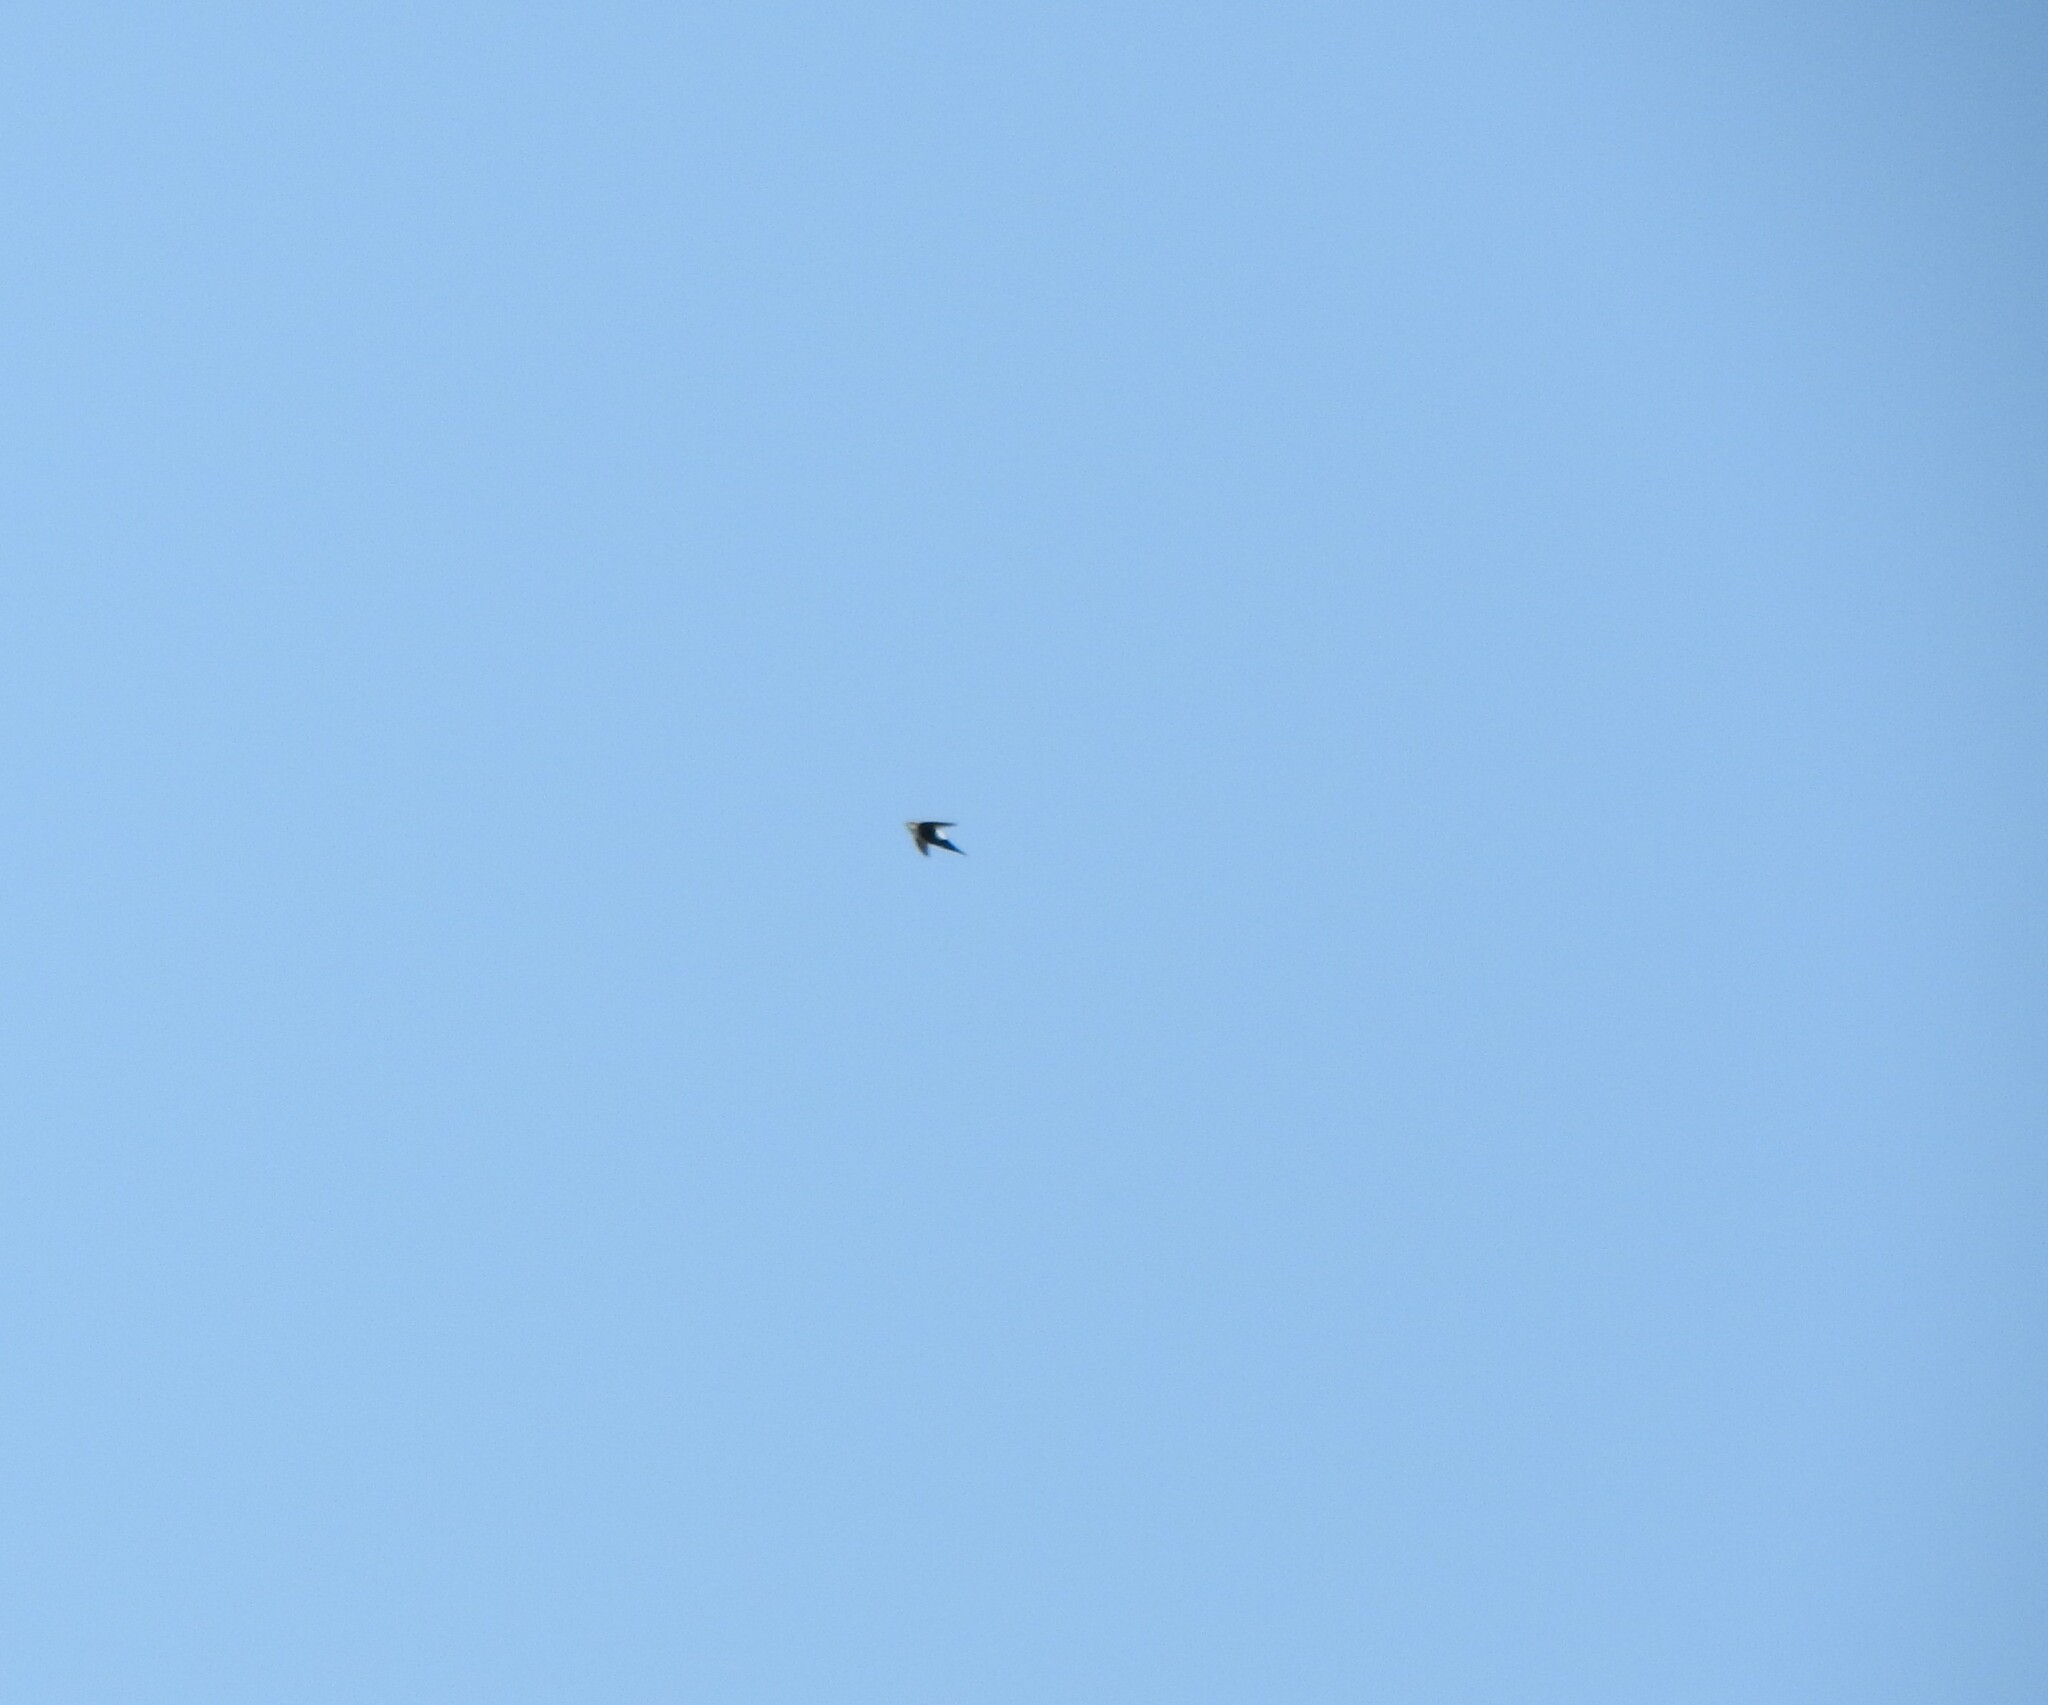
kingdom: Animalia
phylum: Chordata
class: Aves
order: Apodiformes
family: Apodidae
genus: Aeronautes
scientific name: Aeronautes saxatalis
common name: White-throated swift
